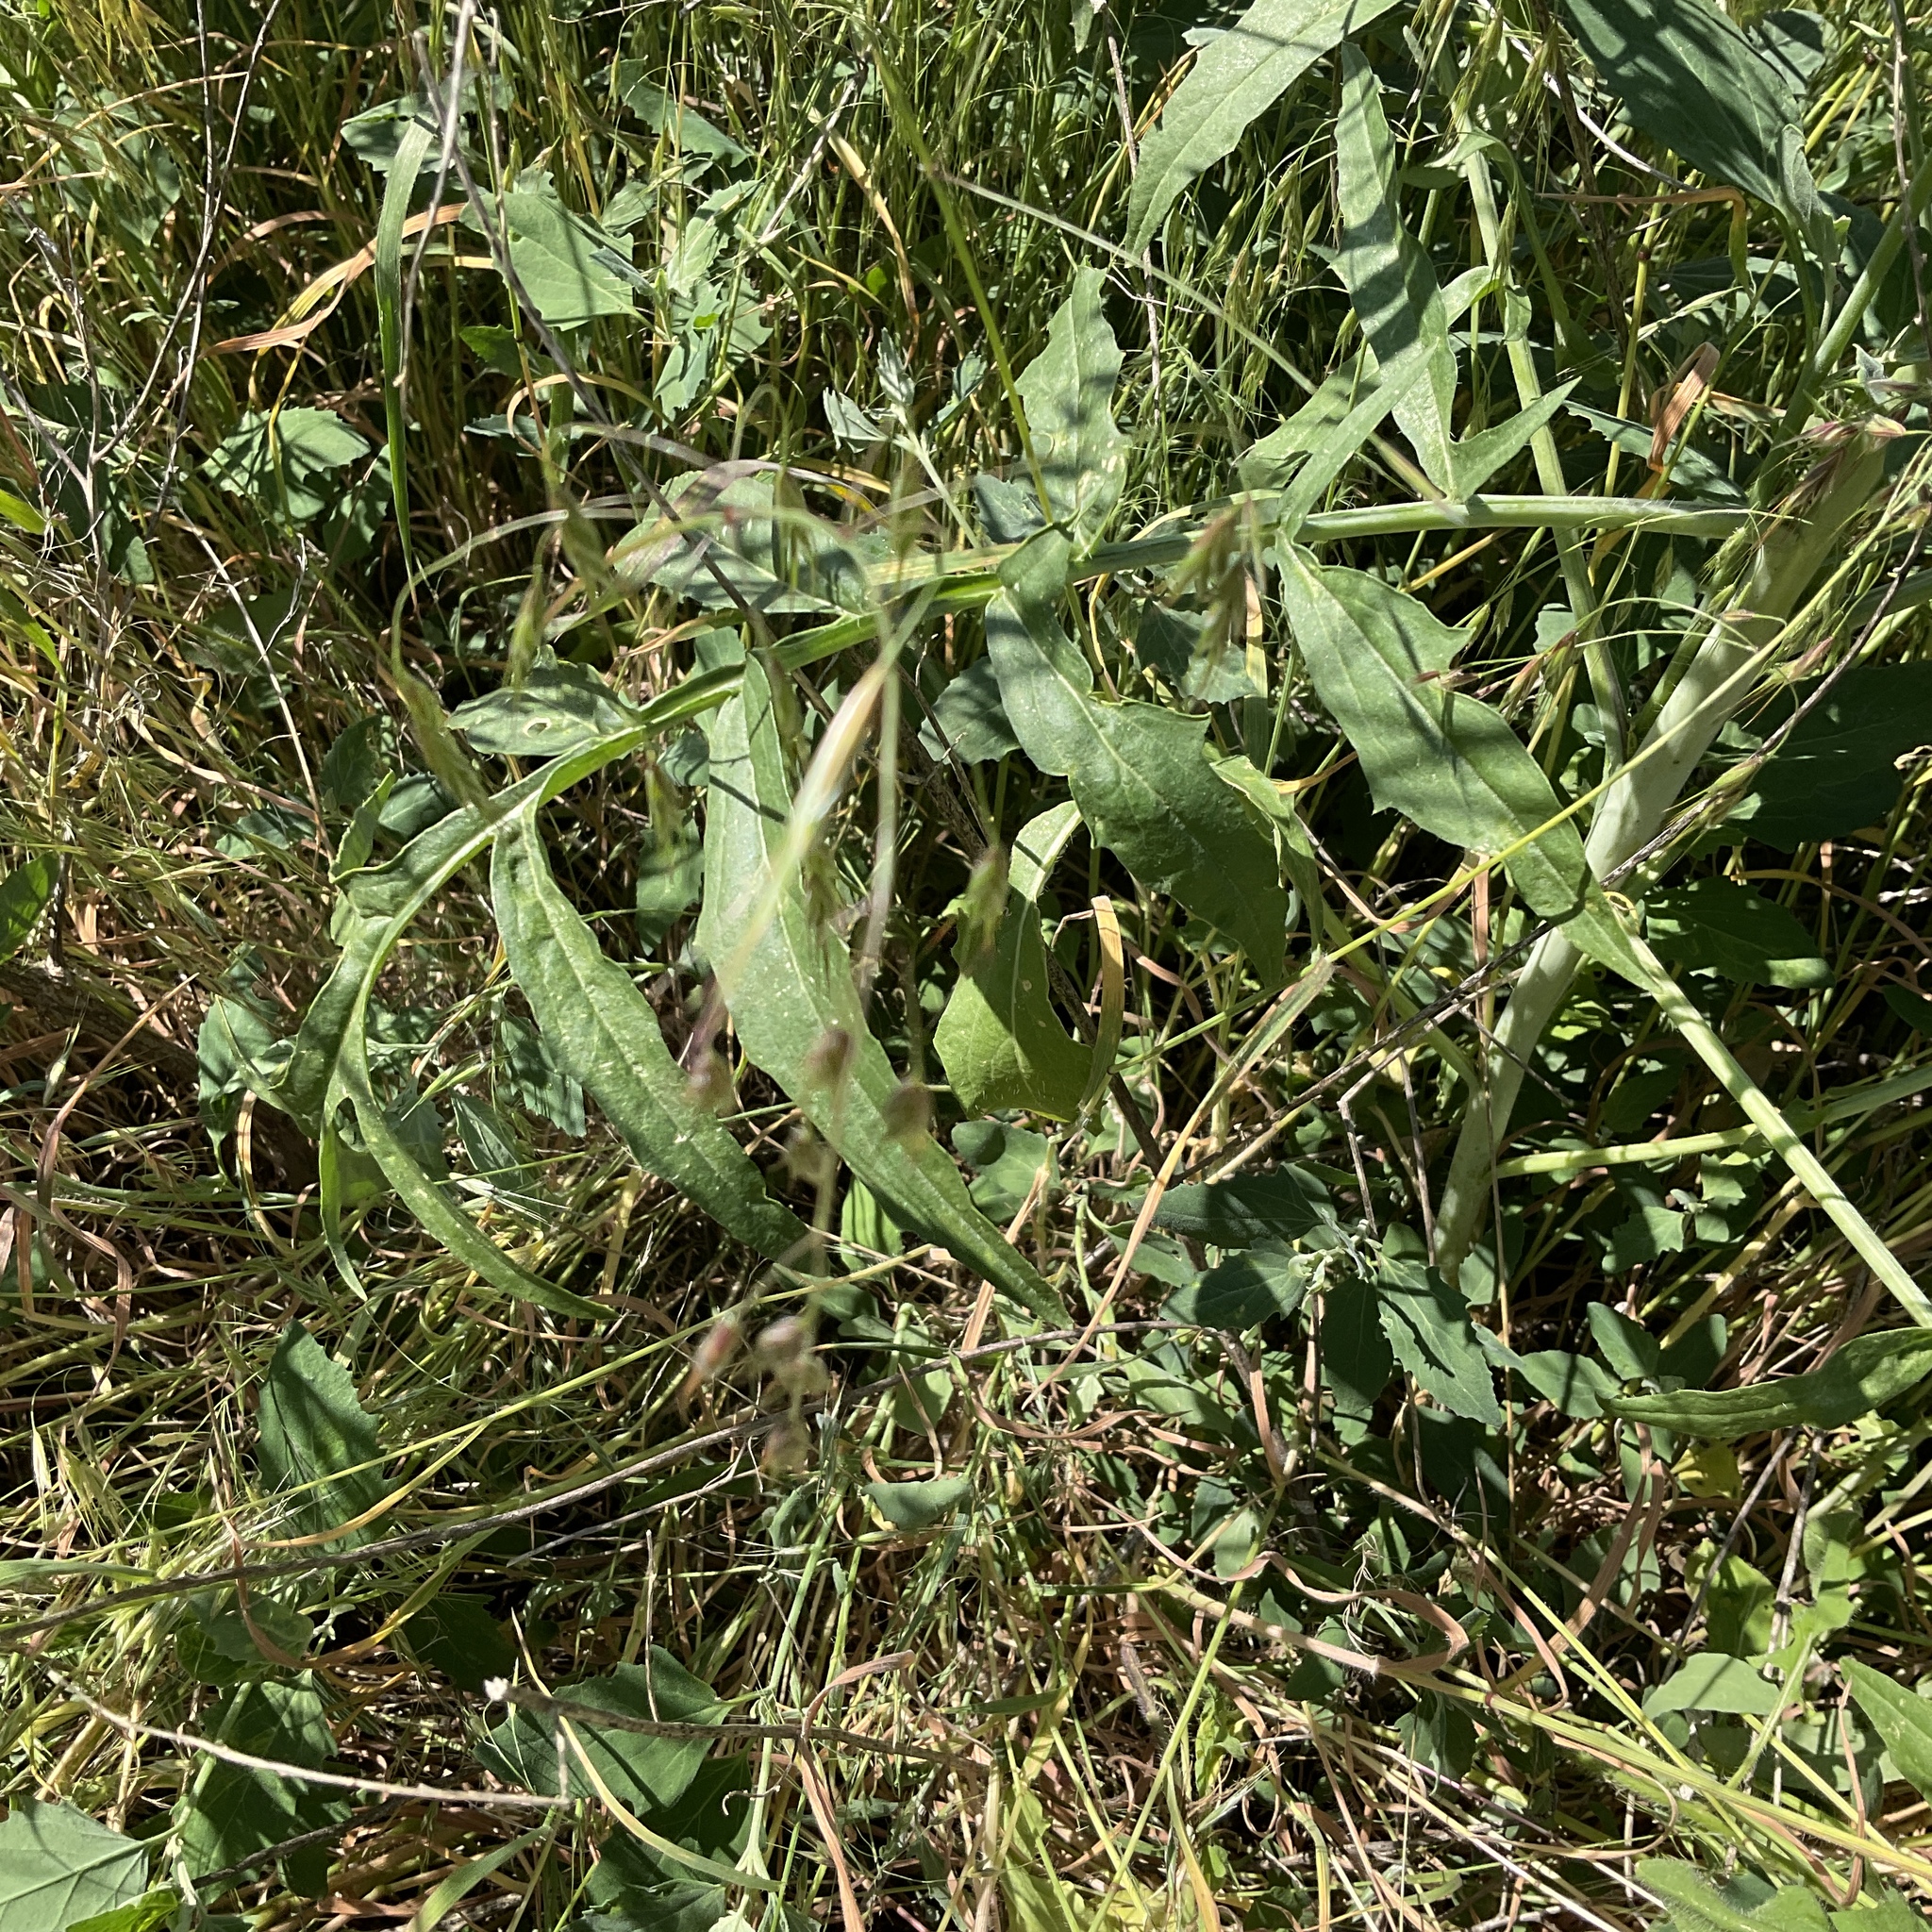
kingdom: Plantae
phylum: Tracheophyta
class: Magnoliopsida
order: Brassicales
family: Brassicaceae
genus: Sisymbrium
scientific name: Sisymbrium altissimum
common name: Tall rocket
